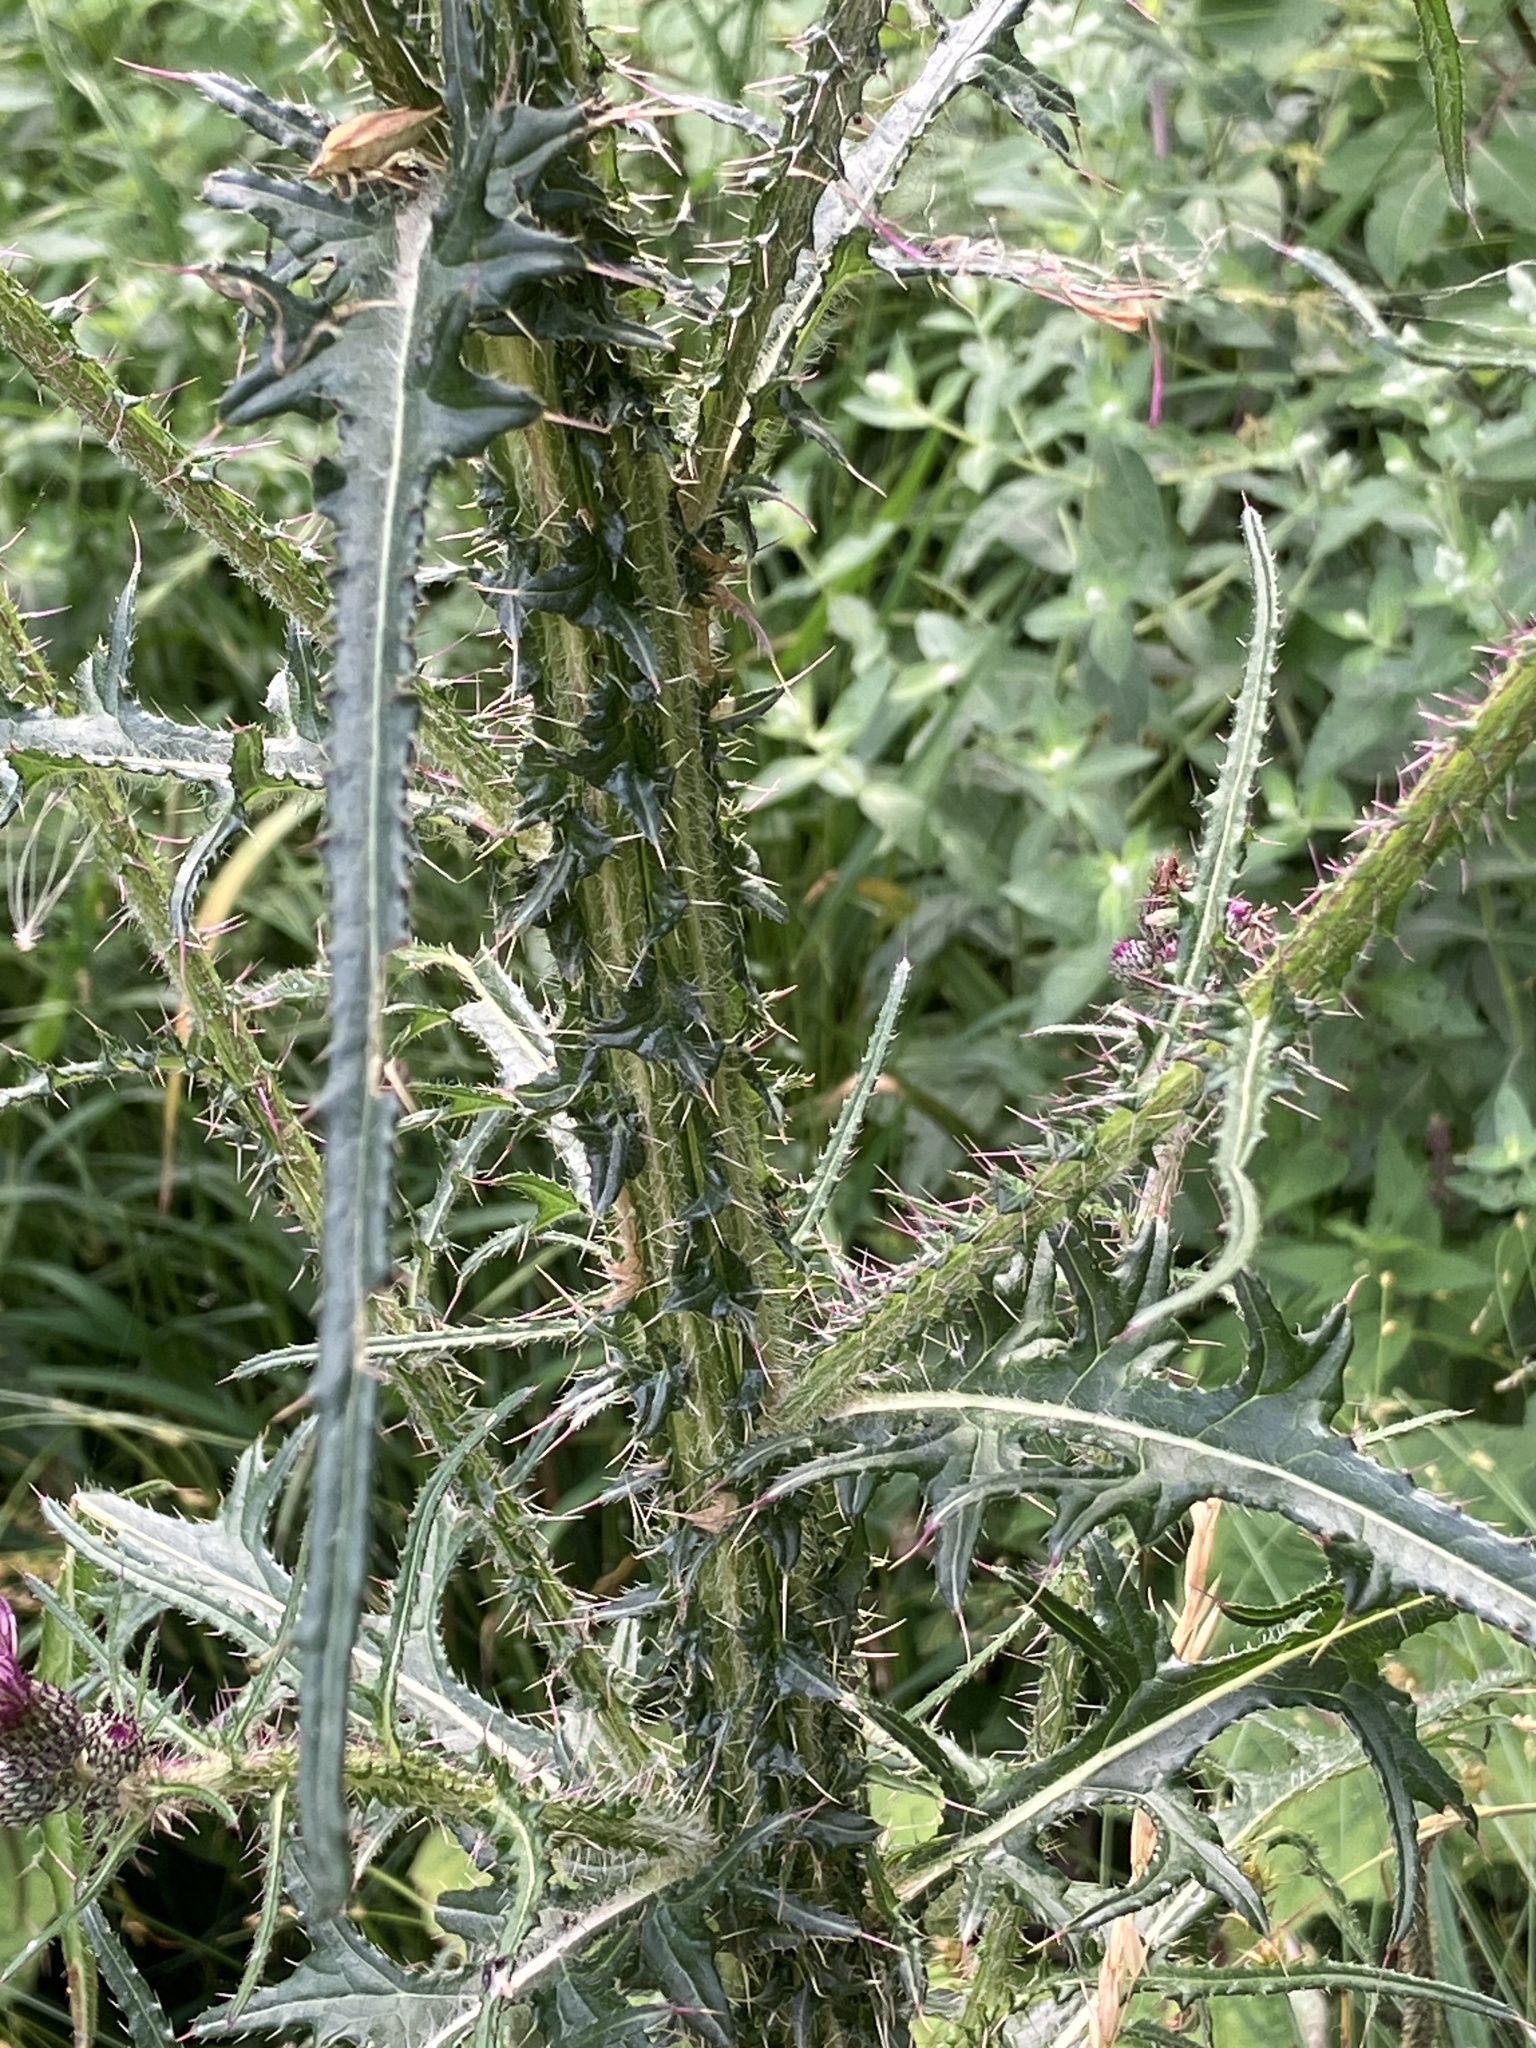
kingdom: Plantae
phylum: Tracheophyta
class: Magnoliopsida
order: Asterales
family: Asteraceae
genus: Cirsium
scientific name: Cirsium palustre
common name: Marsh thistle
